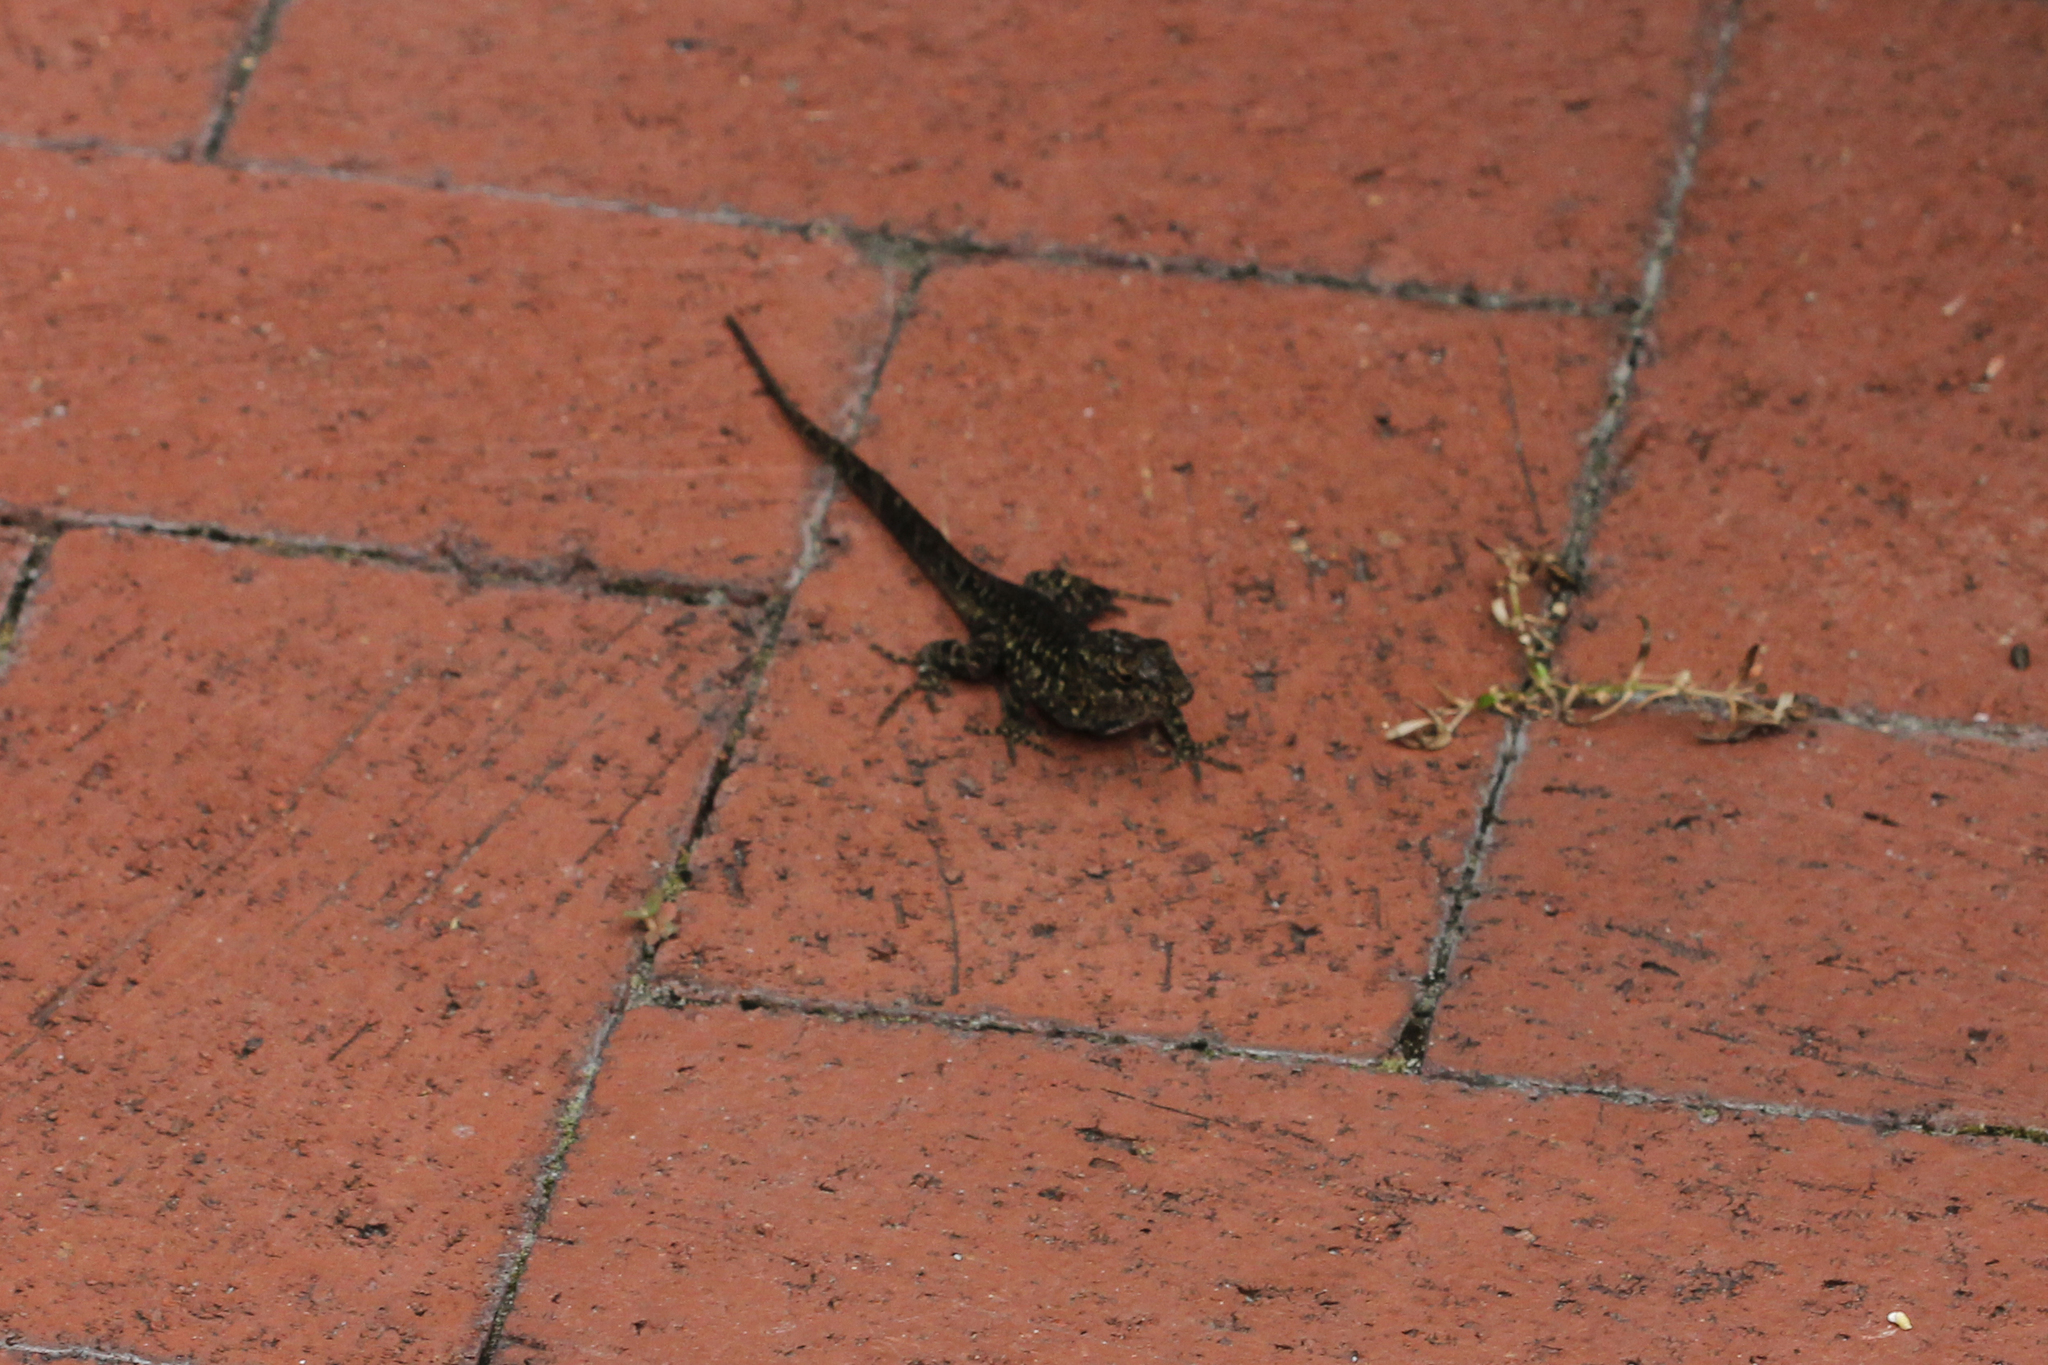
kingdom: Animalia
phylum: Chordata
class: Squamata
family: Dactyloidae
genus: Anolis
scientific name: Anolis sagrei
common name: Brown anole
